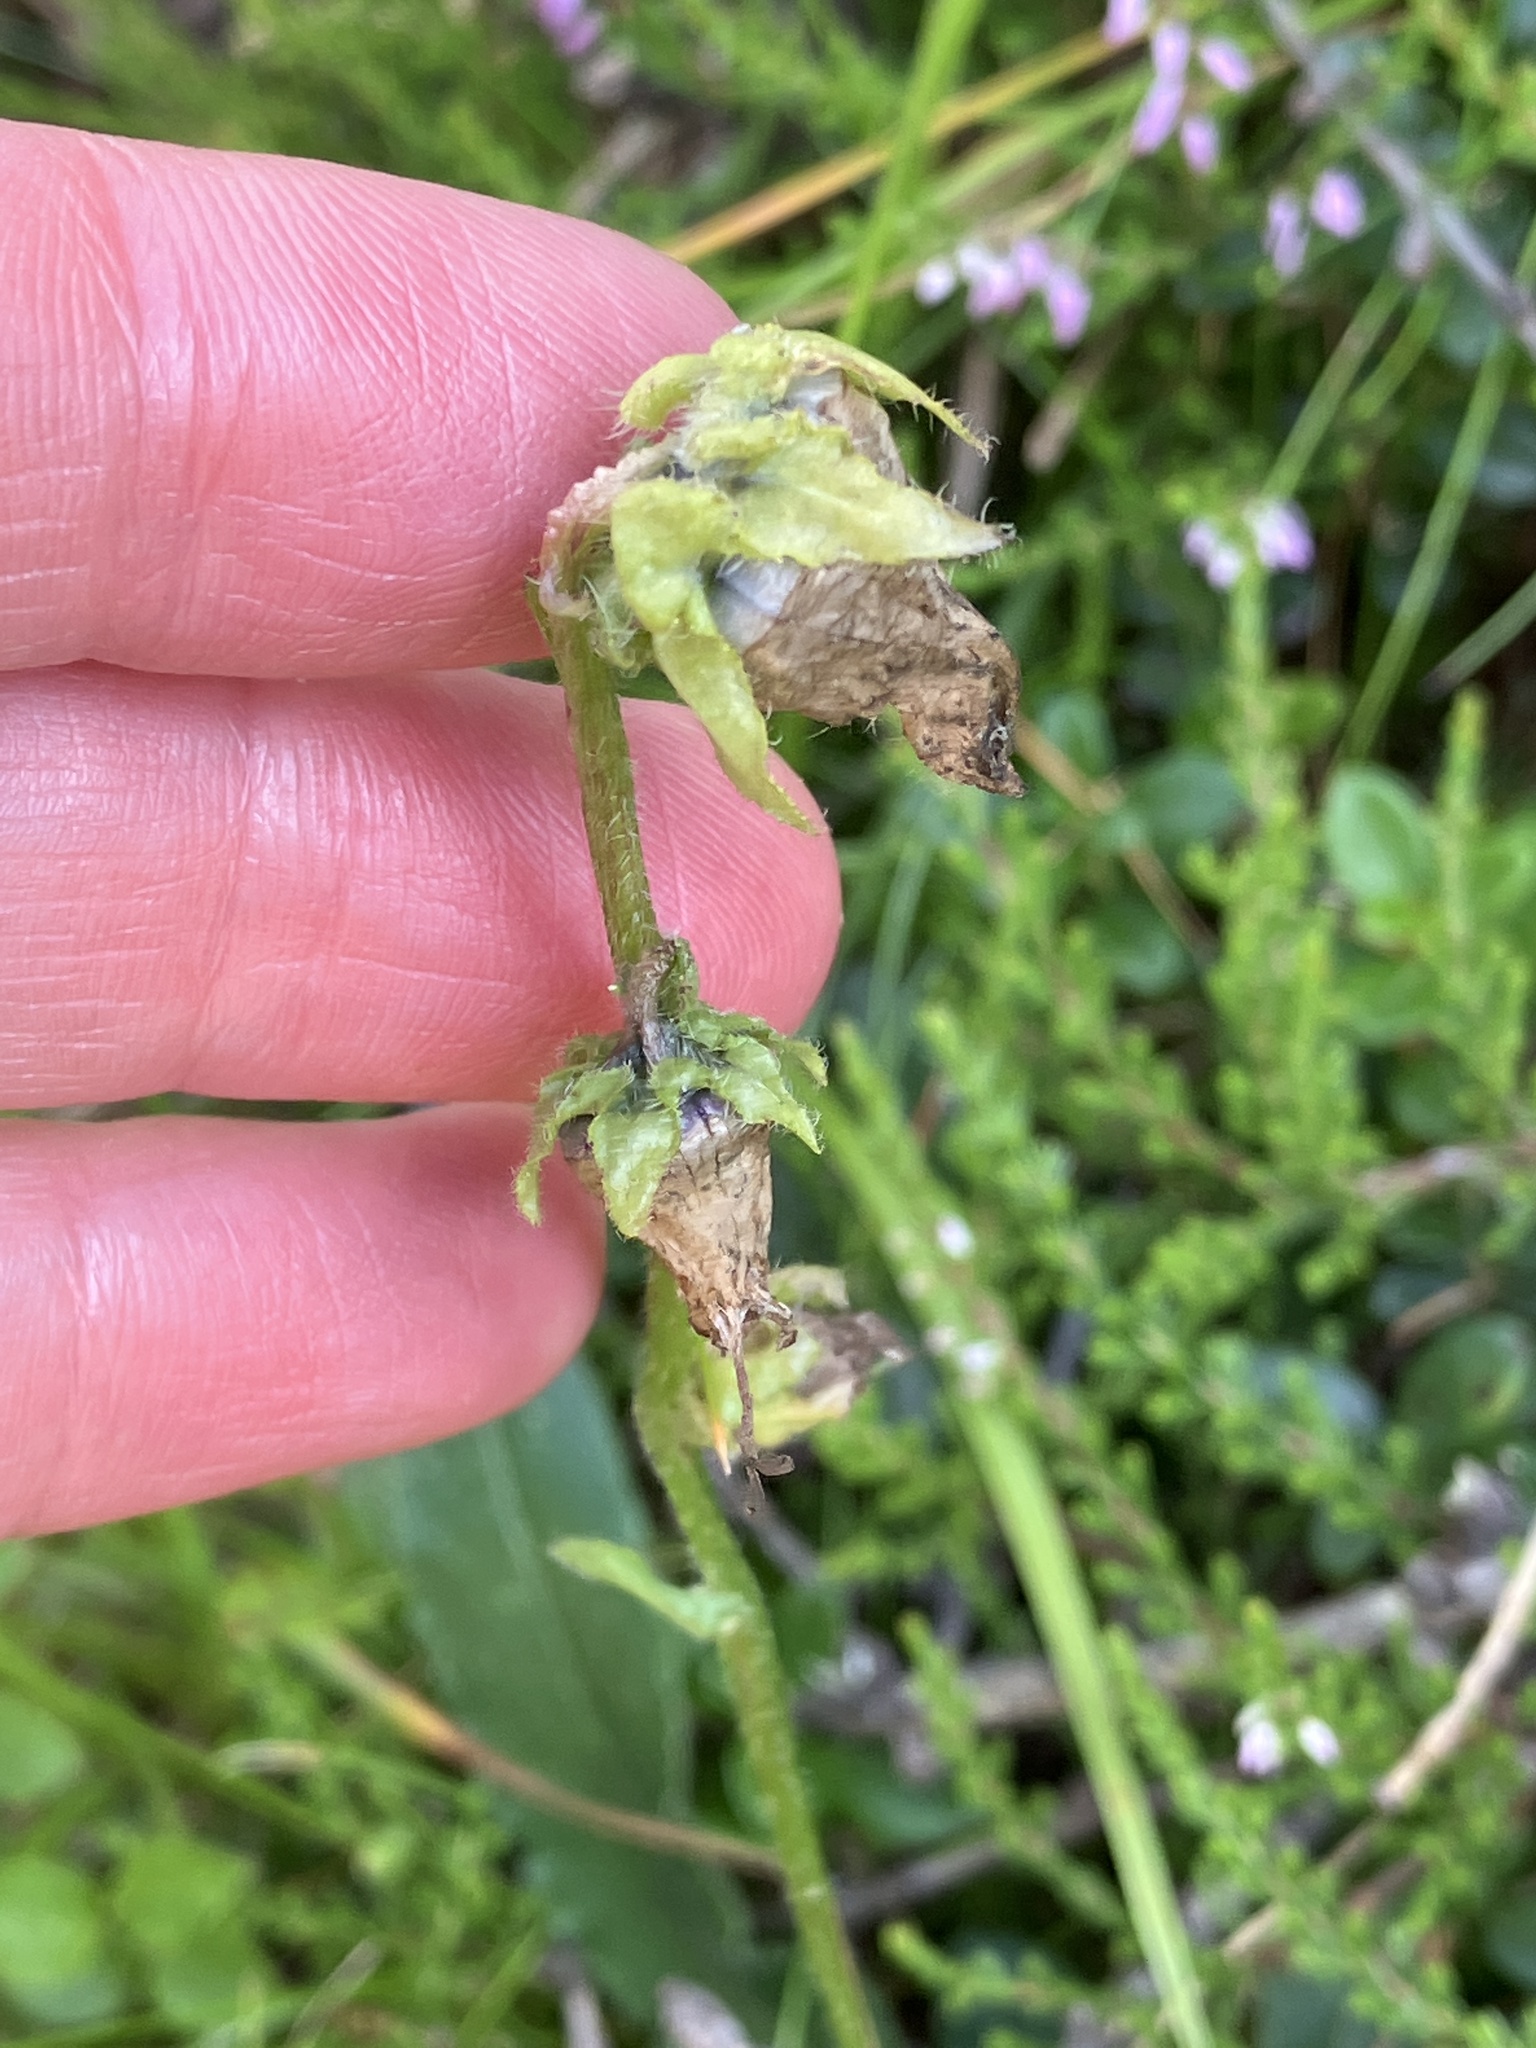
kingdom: Plantae
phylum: Tracheophyta
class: Magnoliopsida
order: Asterales
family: Campanulaceae
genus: Campanula
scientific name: Campanula barbata
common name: Bearded bellflower
